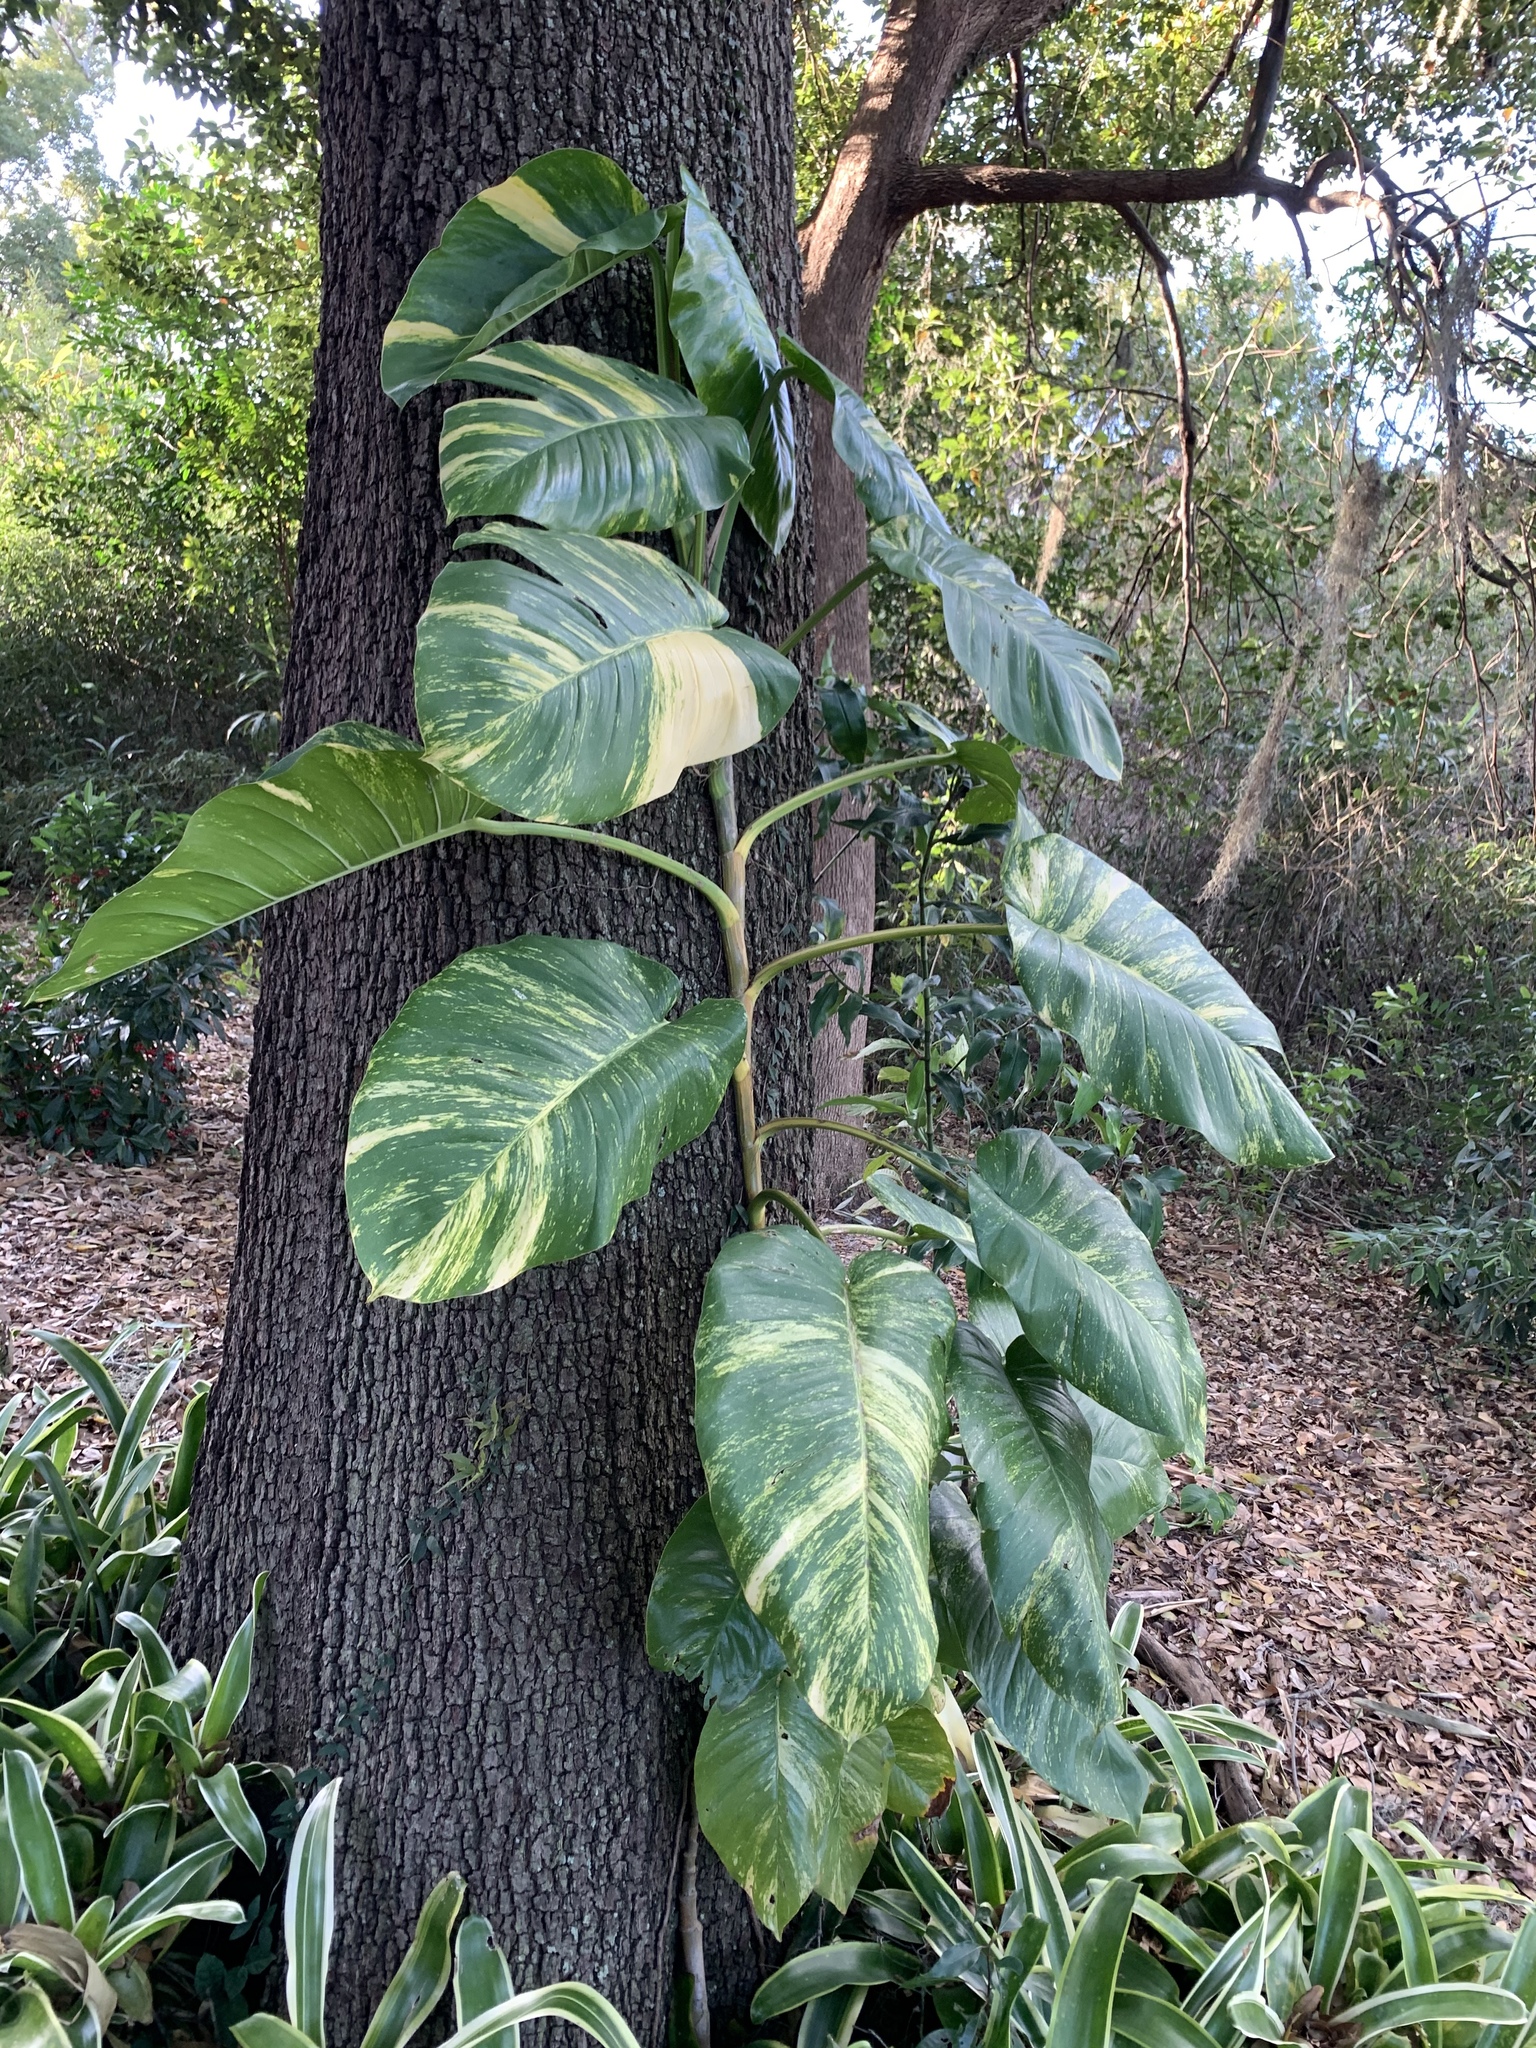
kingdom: Plantae
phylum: Tracheophyta
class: Liliopsida
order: Alismatales
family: Araceae
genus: Epipremnum
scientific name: Epipremnum aureum
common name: Golden hunter's-robe
